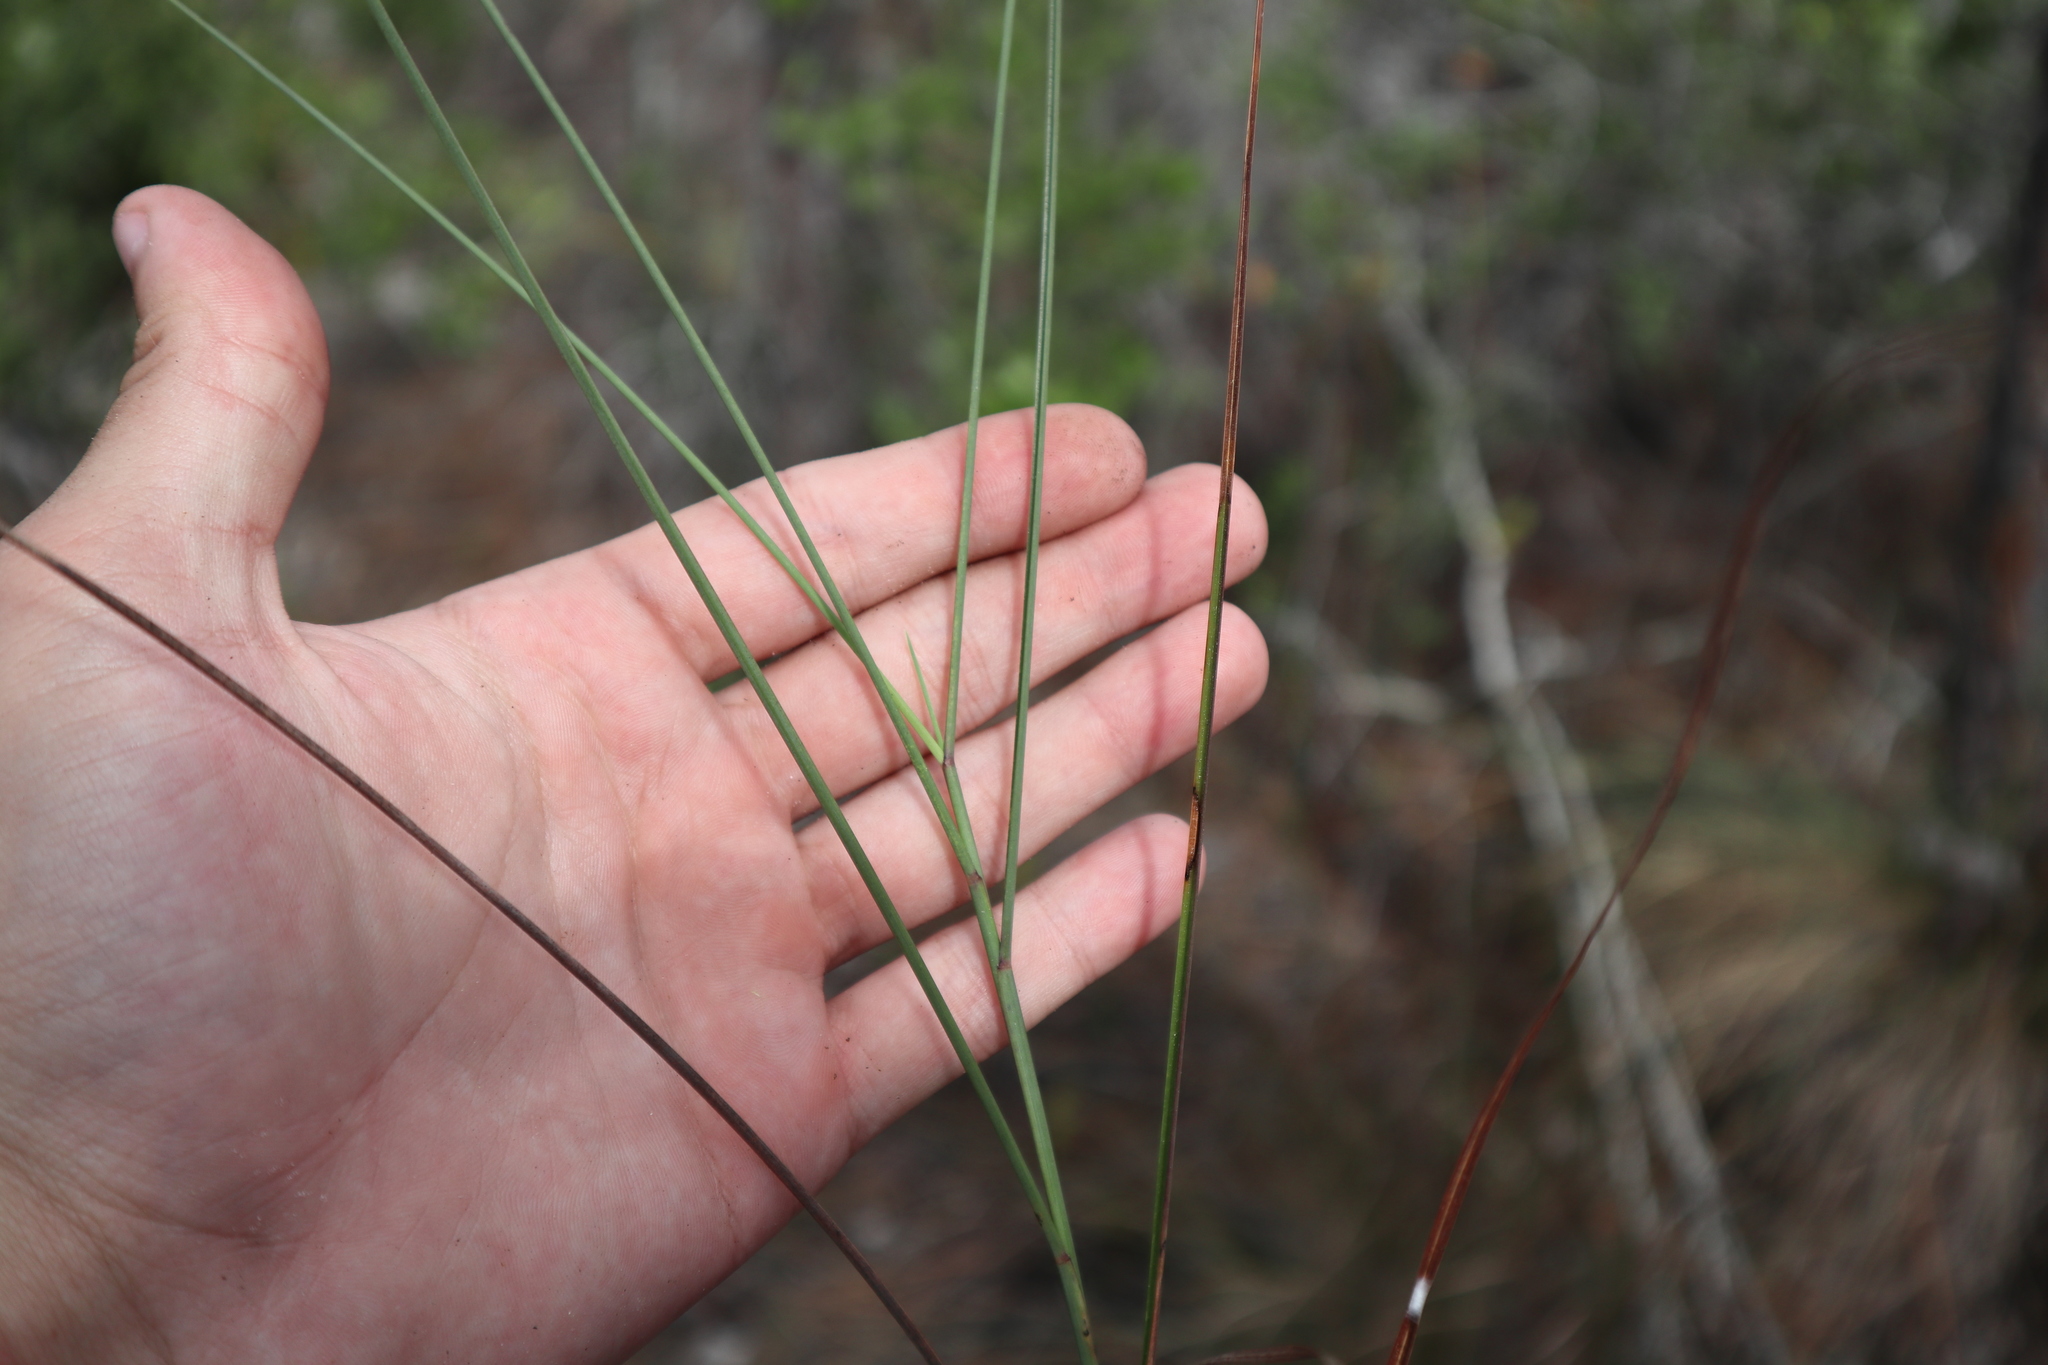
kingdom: Plantae
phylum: Tracheophyta
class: Liliopsida
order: Poales
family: Poaceae
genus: Schizachyrium
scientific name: Schizachyrium rhizomatum
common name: Florida little bluestem
